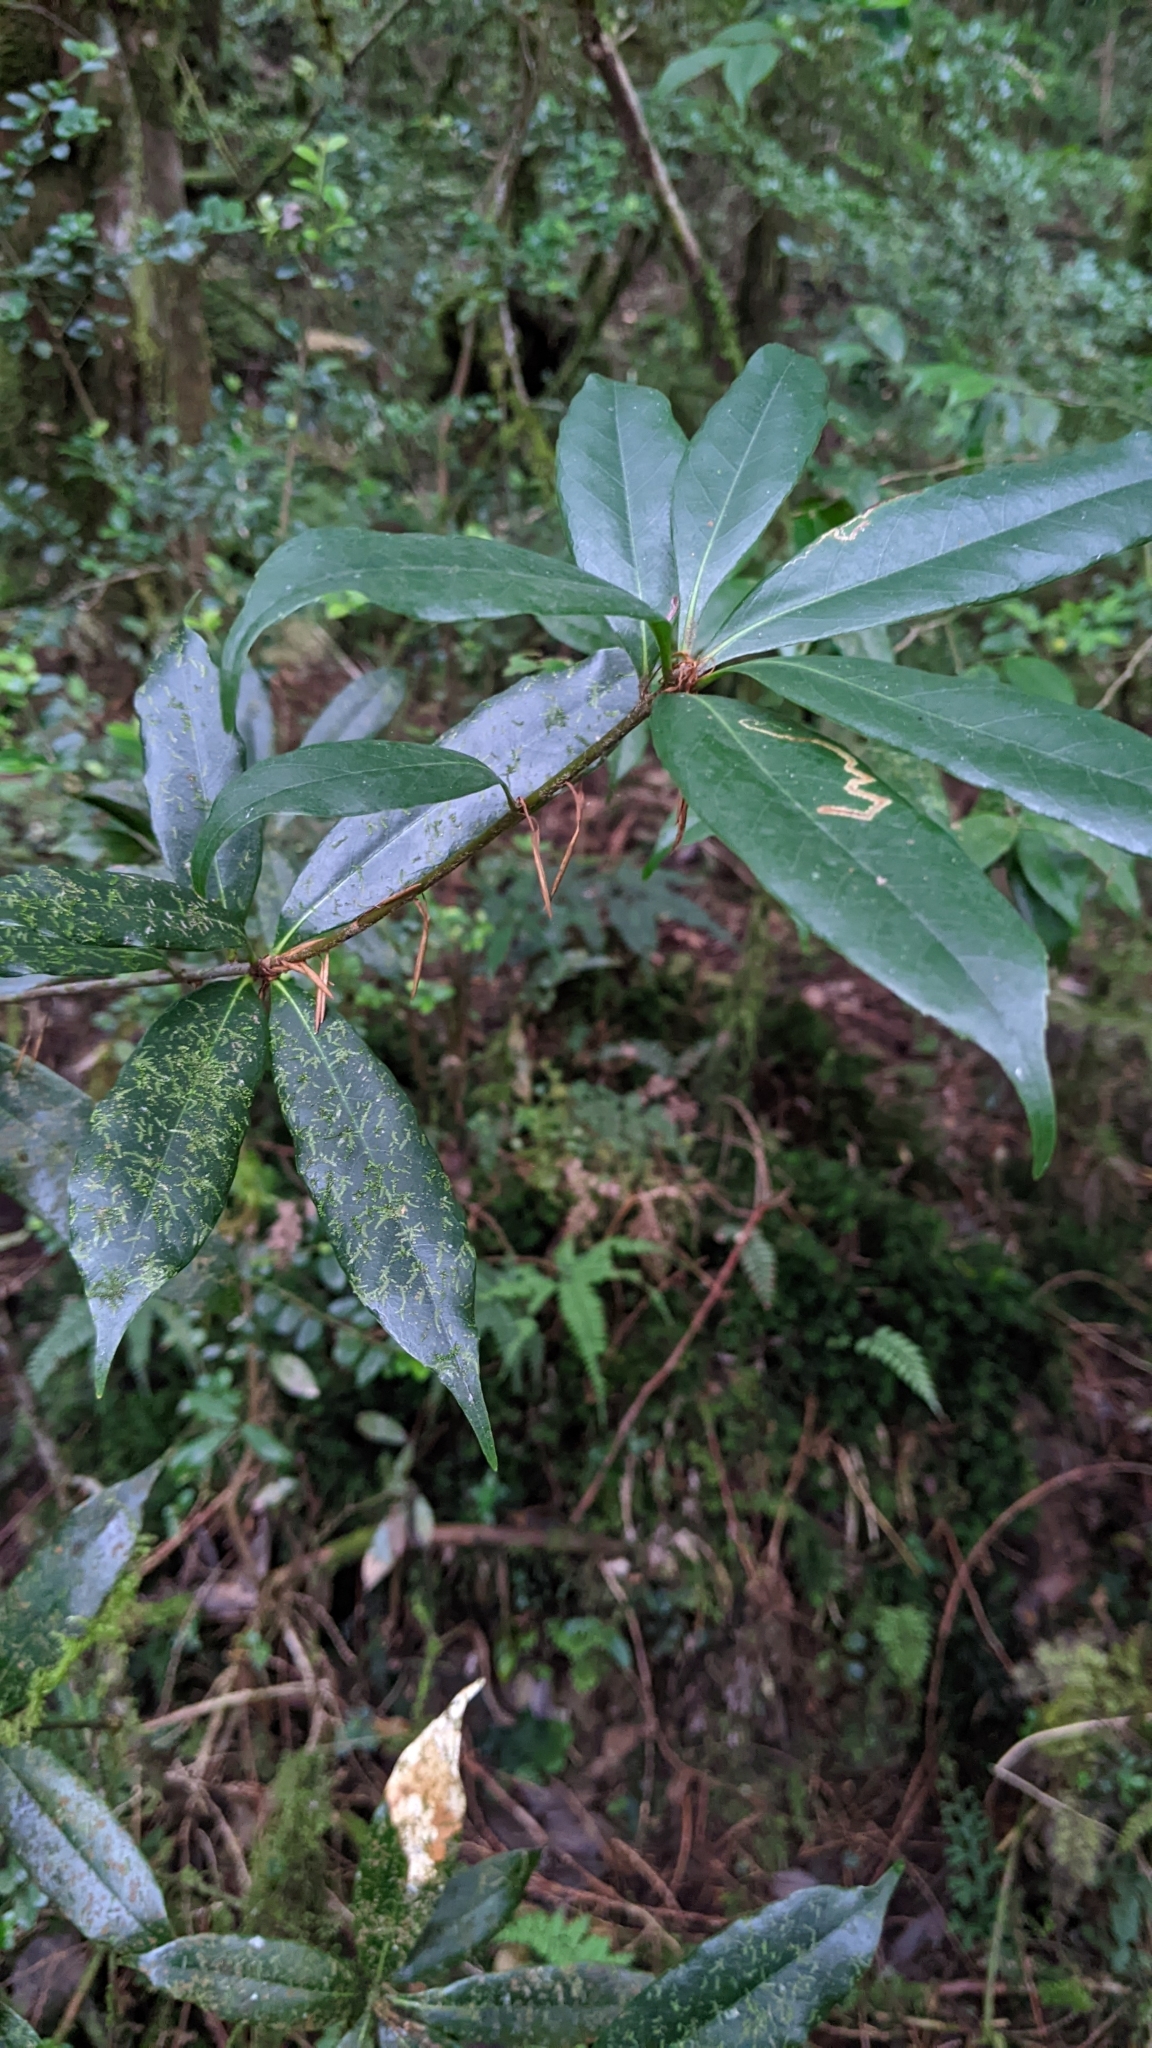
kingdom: Plantae
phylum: Tracheophyta
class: Magnoliopsida
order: Fagales
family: Fagaceae
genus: Quercus
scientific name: Quercus sessilifolia
